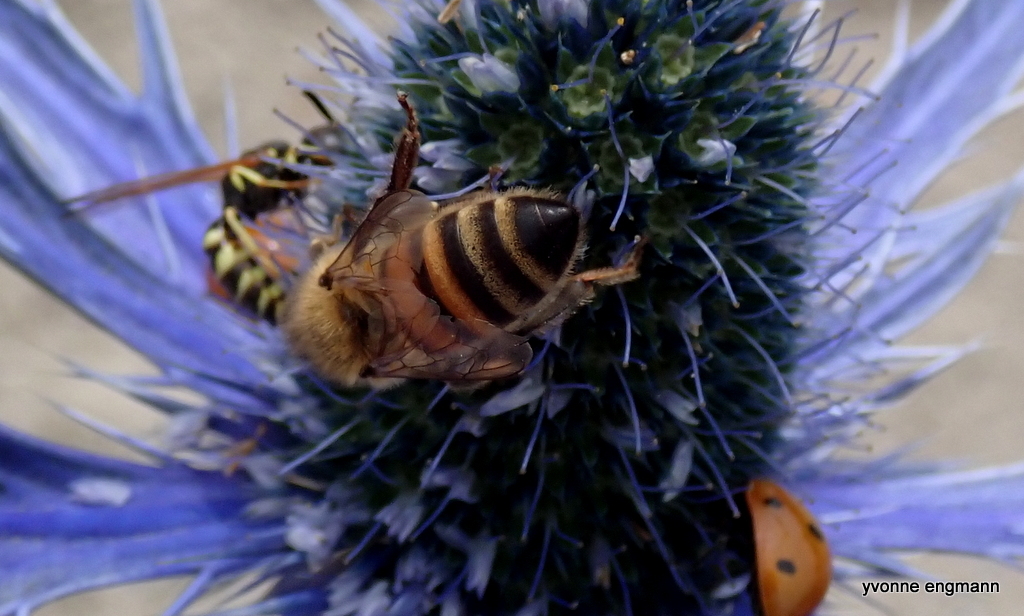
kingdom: Animalia
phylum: Arthropoda
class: Insecta
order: Hymenoptera
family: Apidae
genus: Apis
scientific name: Apis mellifera
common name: Honey bee
